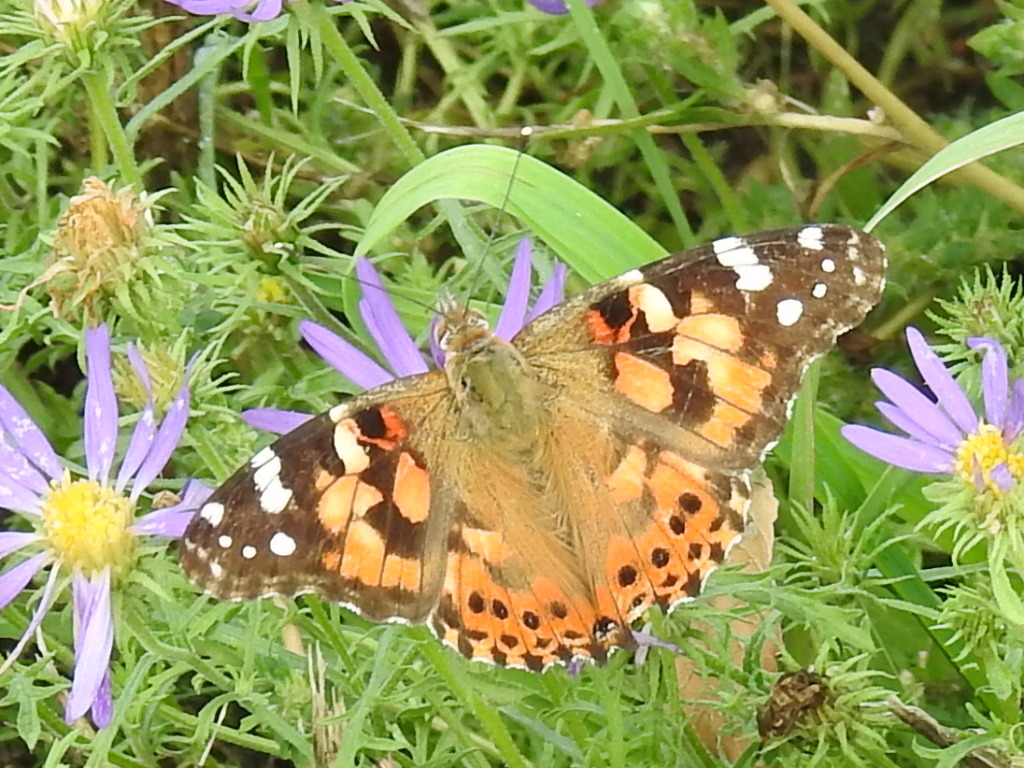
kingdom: Animalia
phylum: Arthropoda
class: Insecta
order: Lepidoptera
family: Nymphalidae
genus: Vanessa
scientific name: Vanessa cardui
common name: Painted lady
